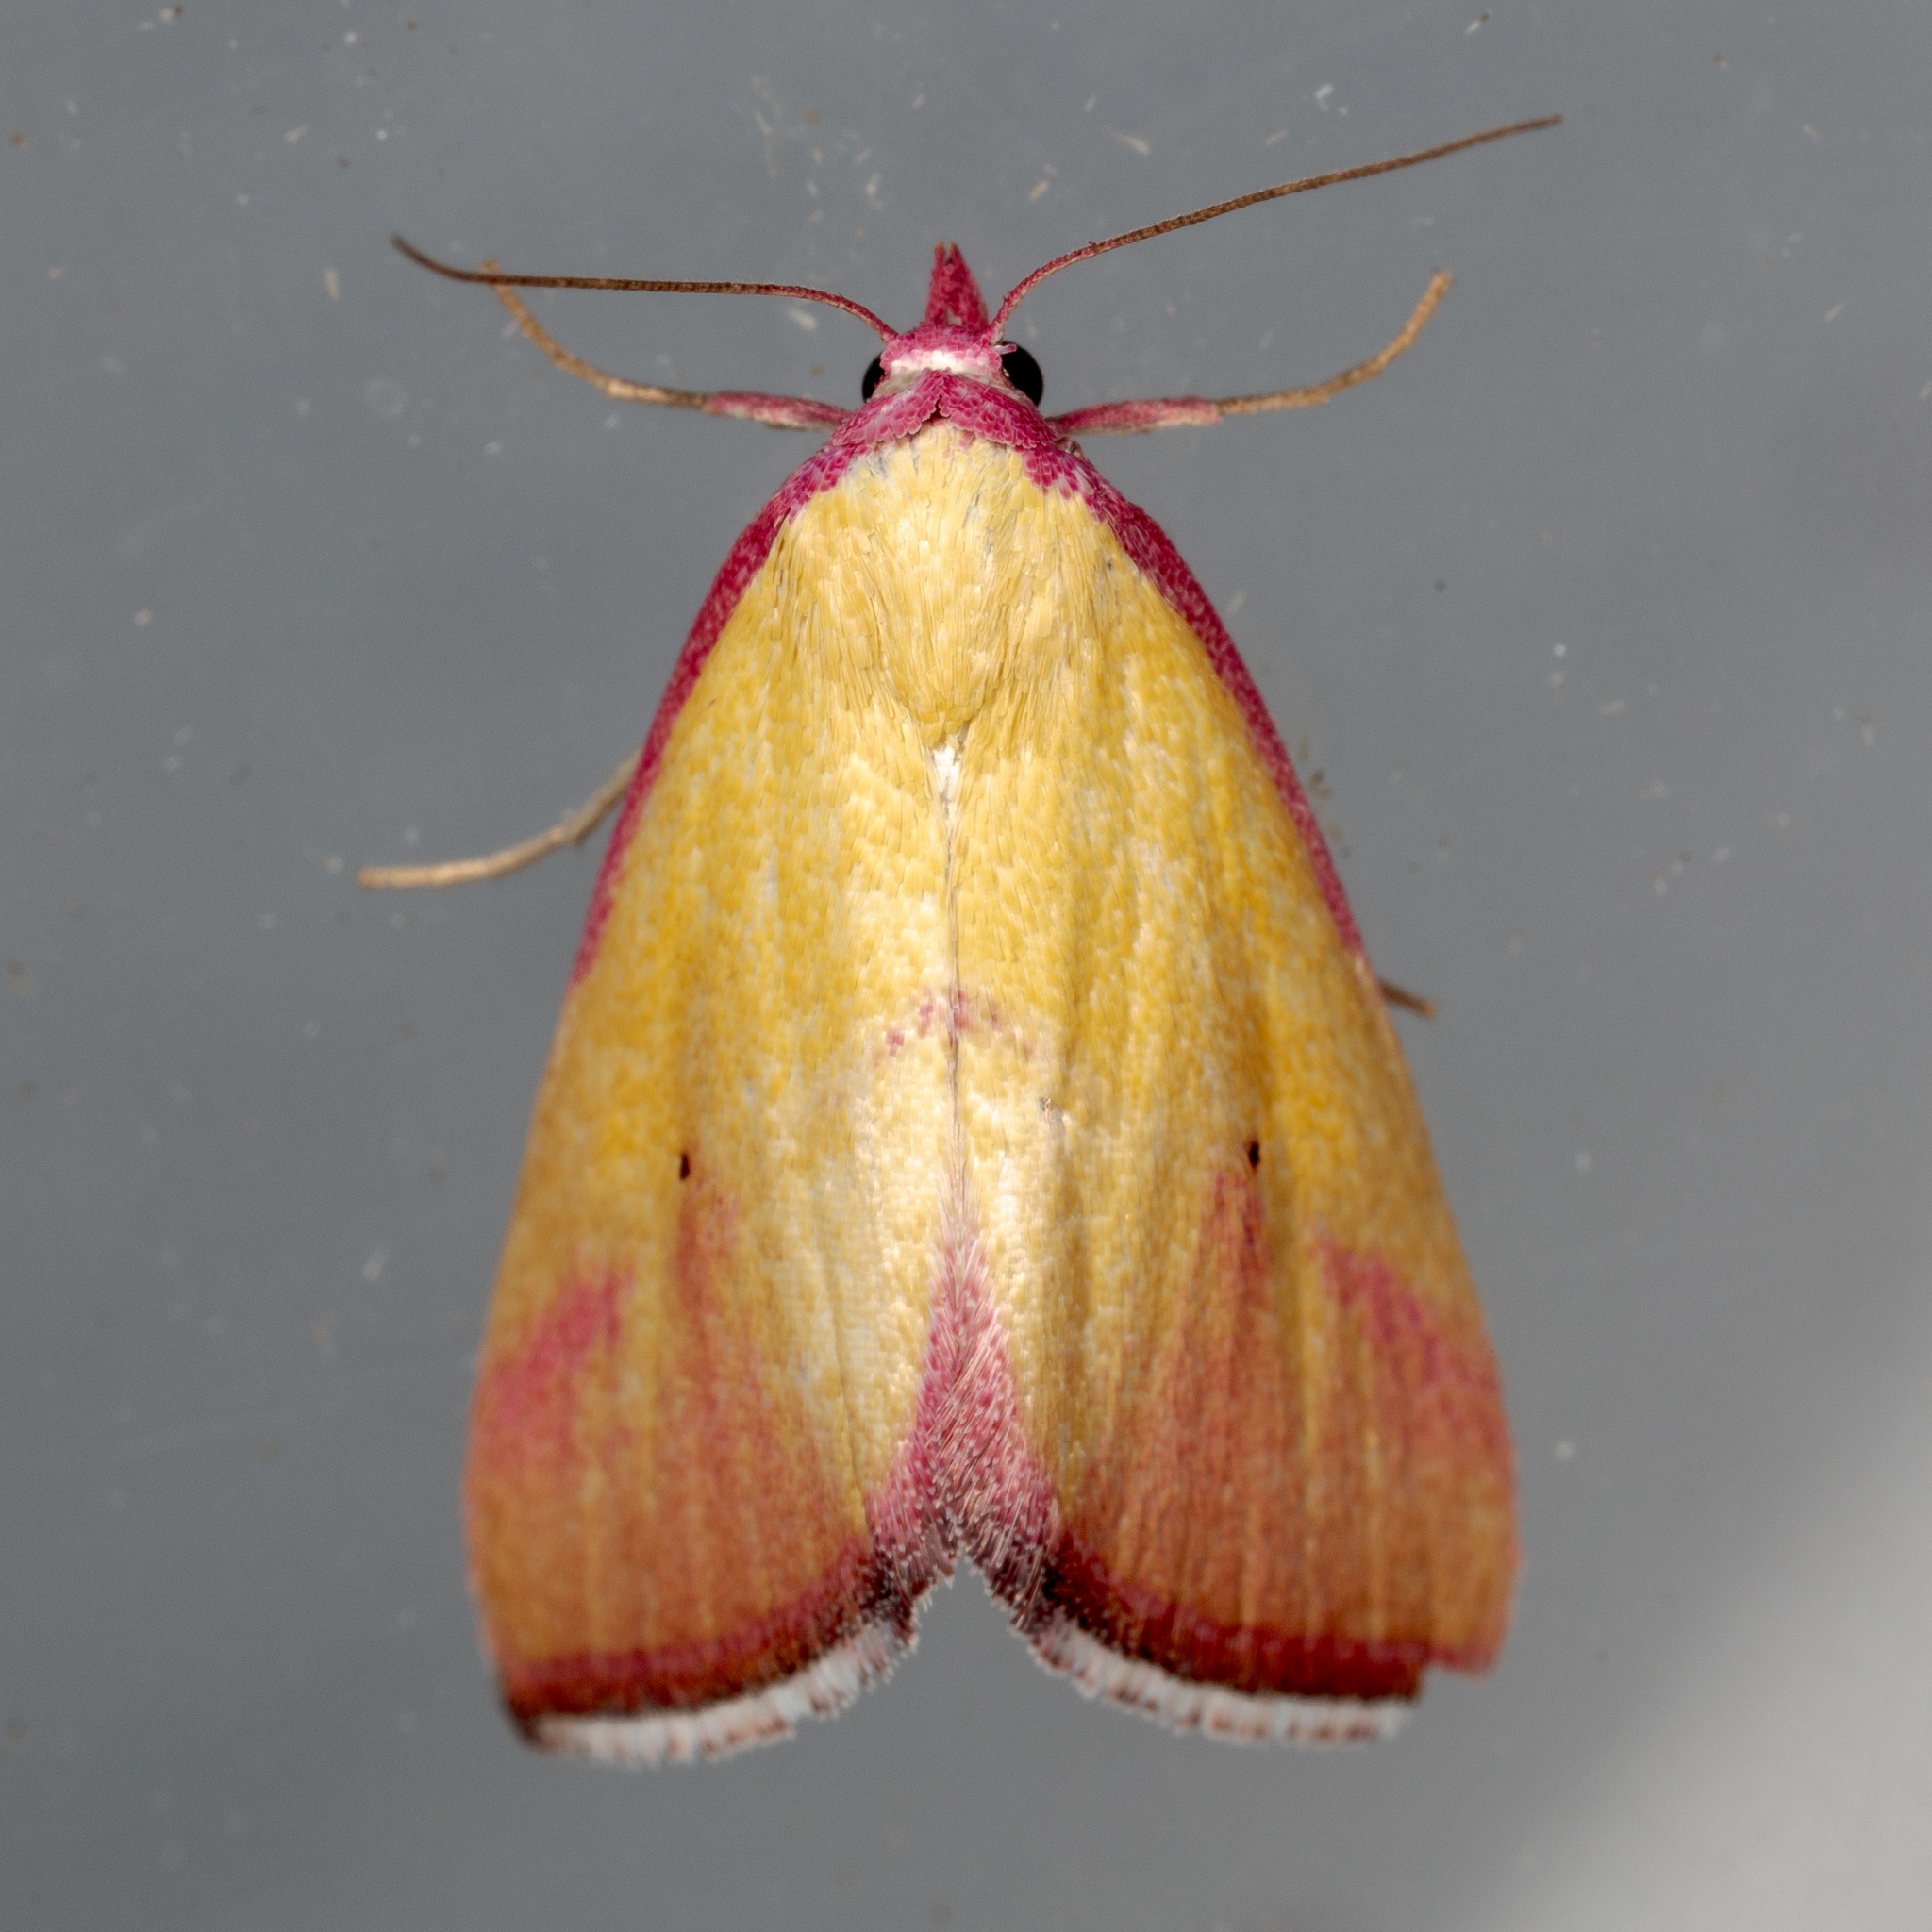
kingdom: Animalia
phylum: Arthropoda
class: Insecta
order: Lepidoptera
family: Erebidae
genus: Phytometra
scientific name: Phytometra ernestinana
